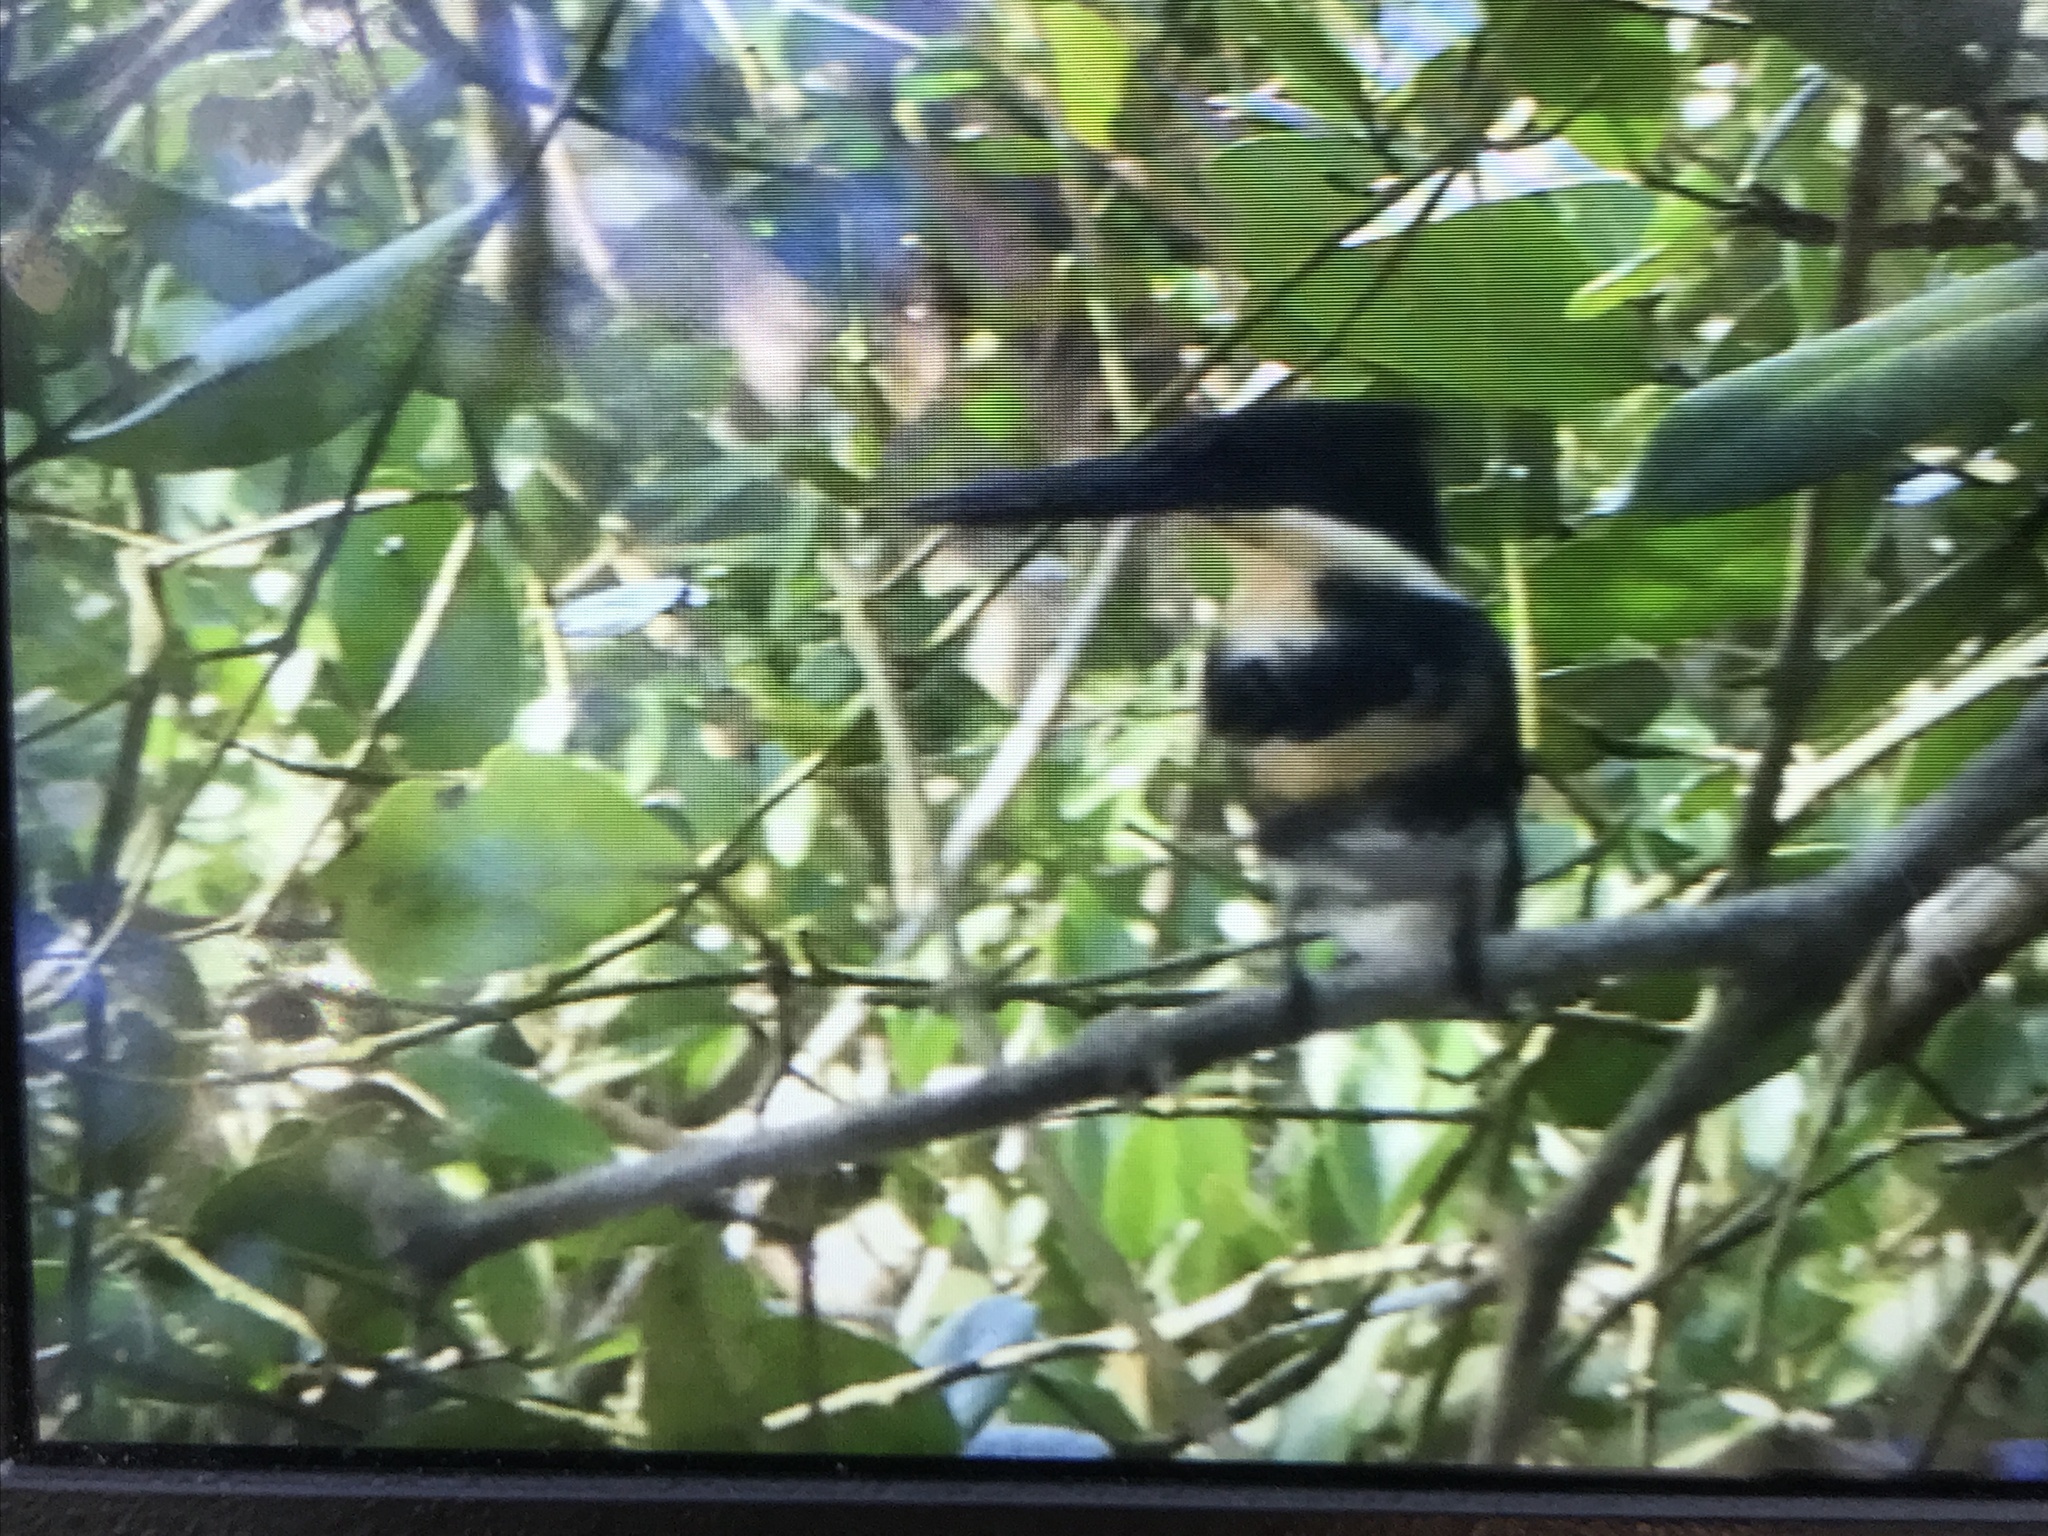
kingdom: Animalia
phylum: Chordata
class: Aves
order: Coraciiformes
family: Alcedinidae
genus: Chloroceryle
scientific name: Chloroceryle americana
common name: Green kingfisher
